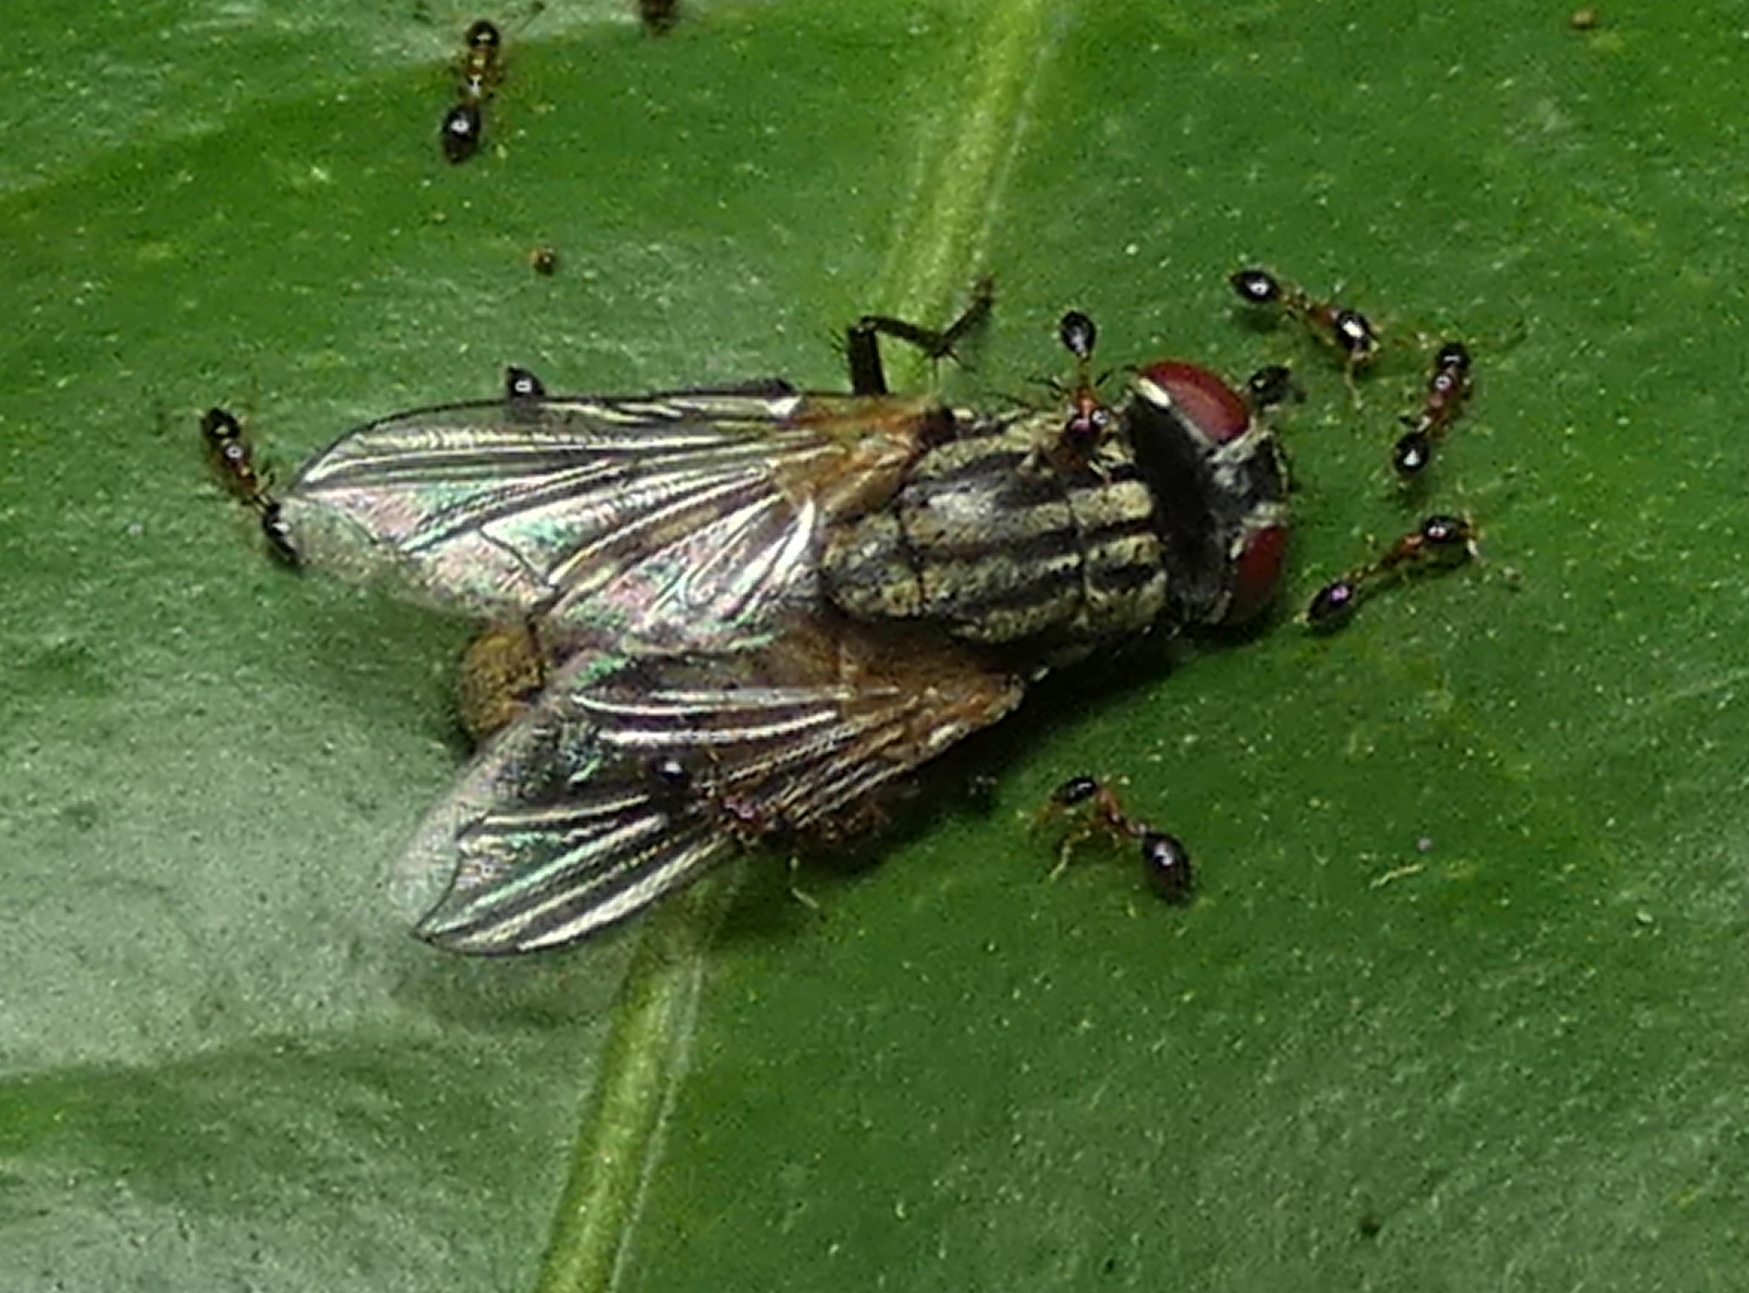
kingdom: Animalia
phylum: Arthropoda
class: Insecta
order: Hymenoptera
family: Formicidae
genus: Monomorium
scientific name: Monomorium floricola
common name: Bicolored trailing ant
